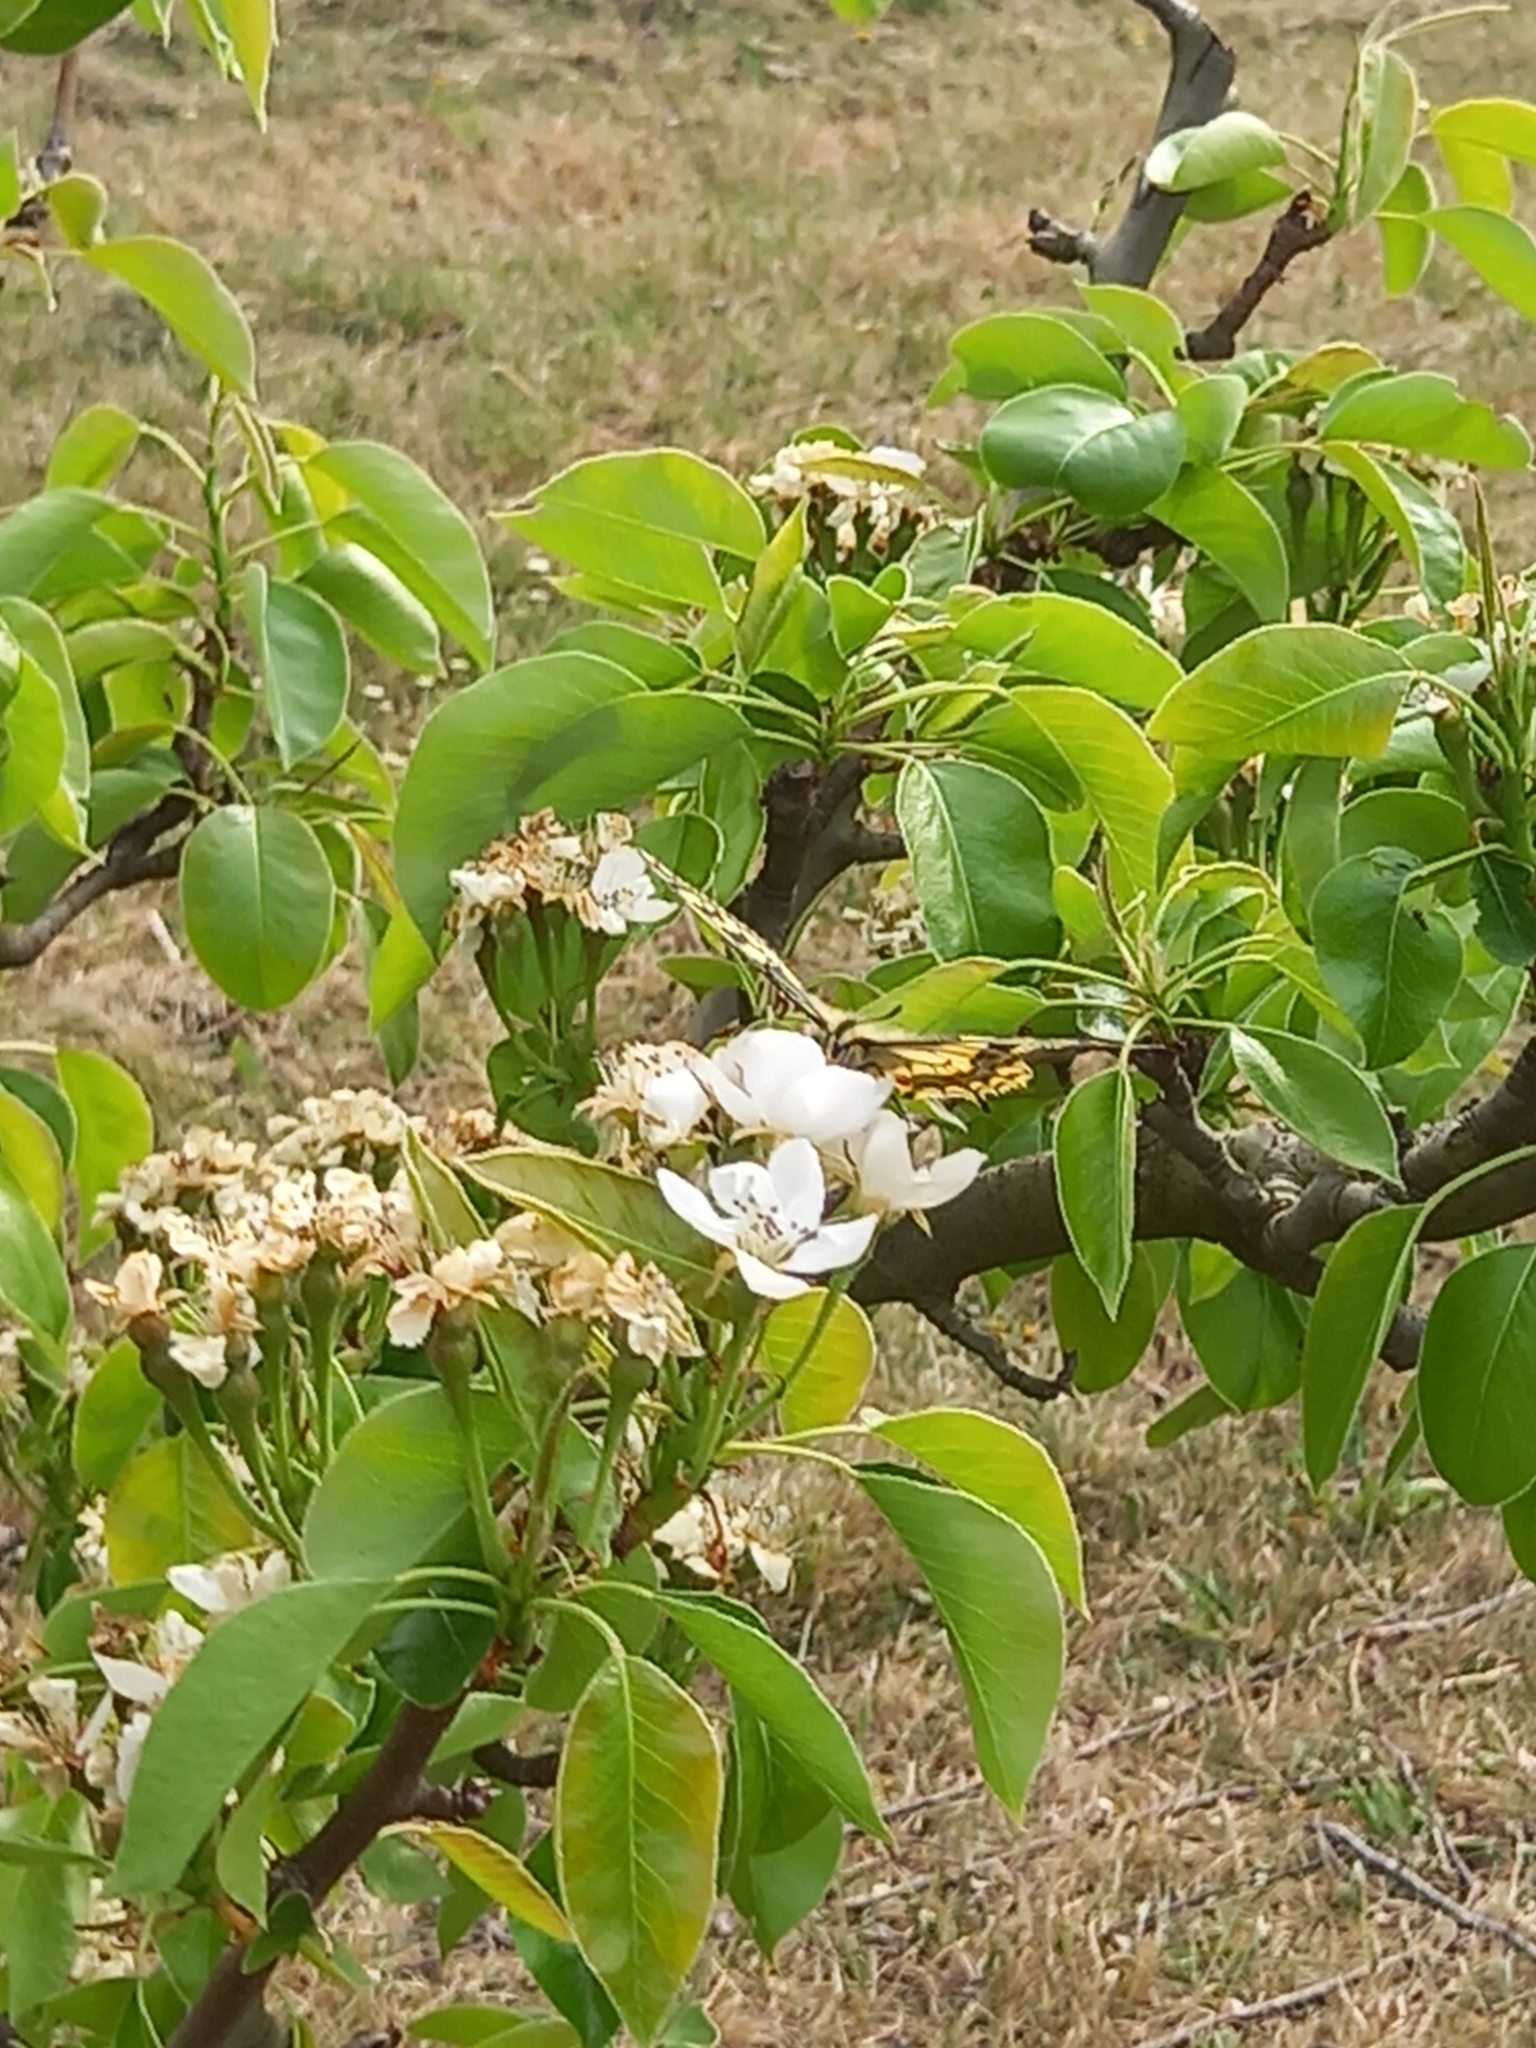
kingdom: Animalia
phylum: Arthropoda
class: Insecta
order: Lepidoptera
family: Papilionidae
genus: Papilio
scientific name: Papilio machaon
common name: Swallowtail
